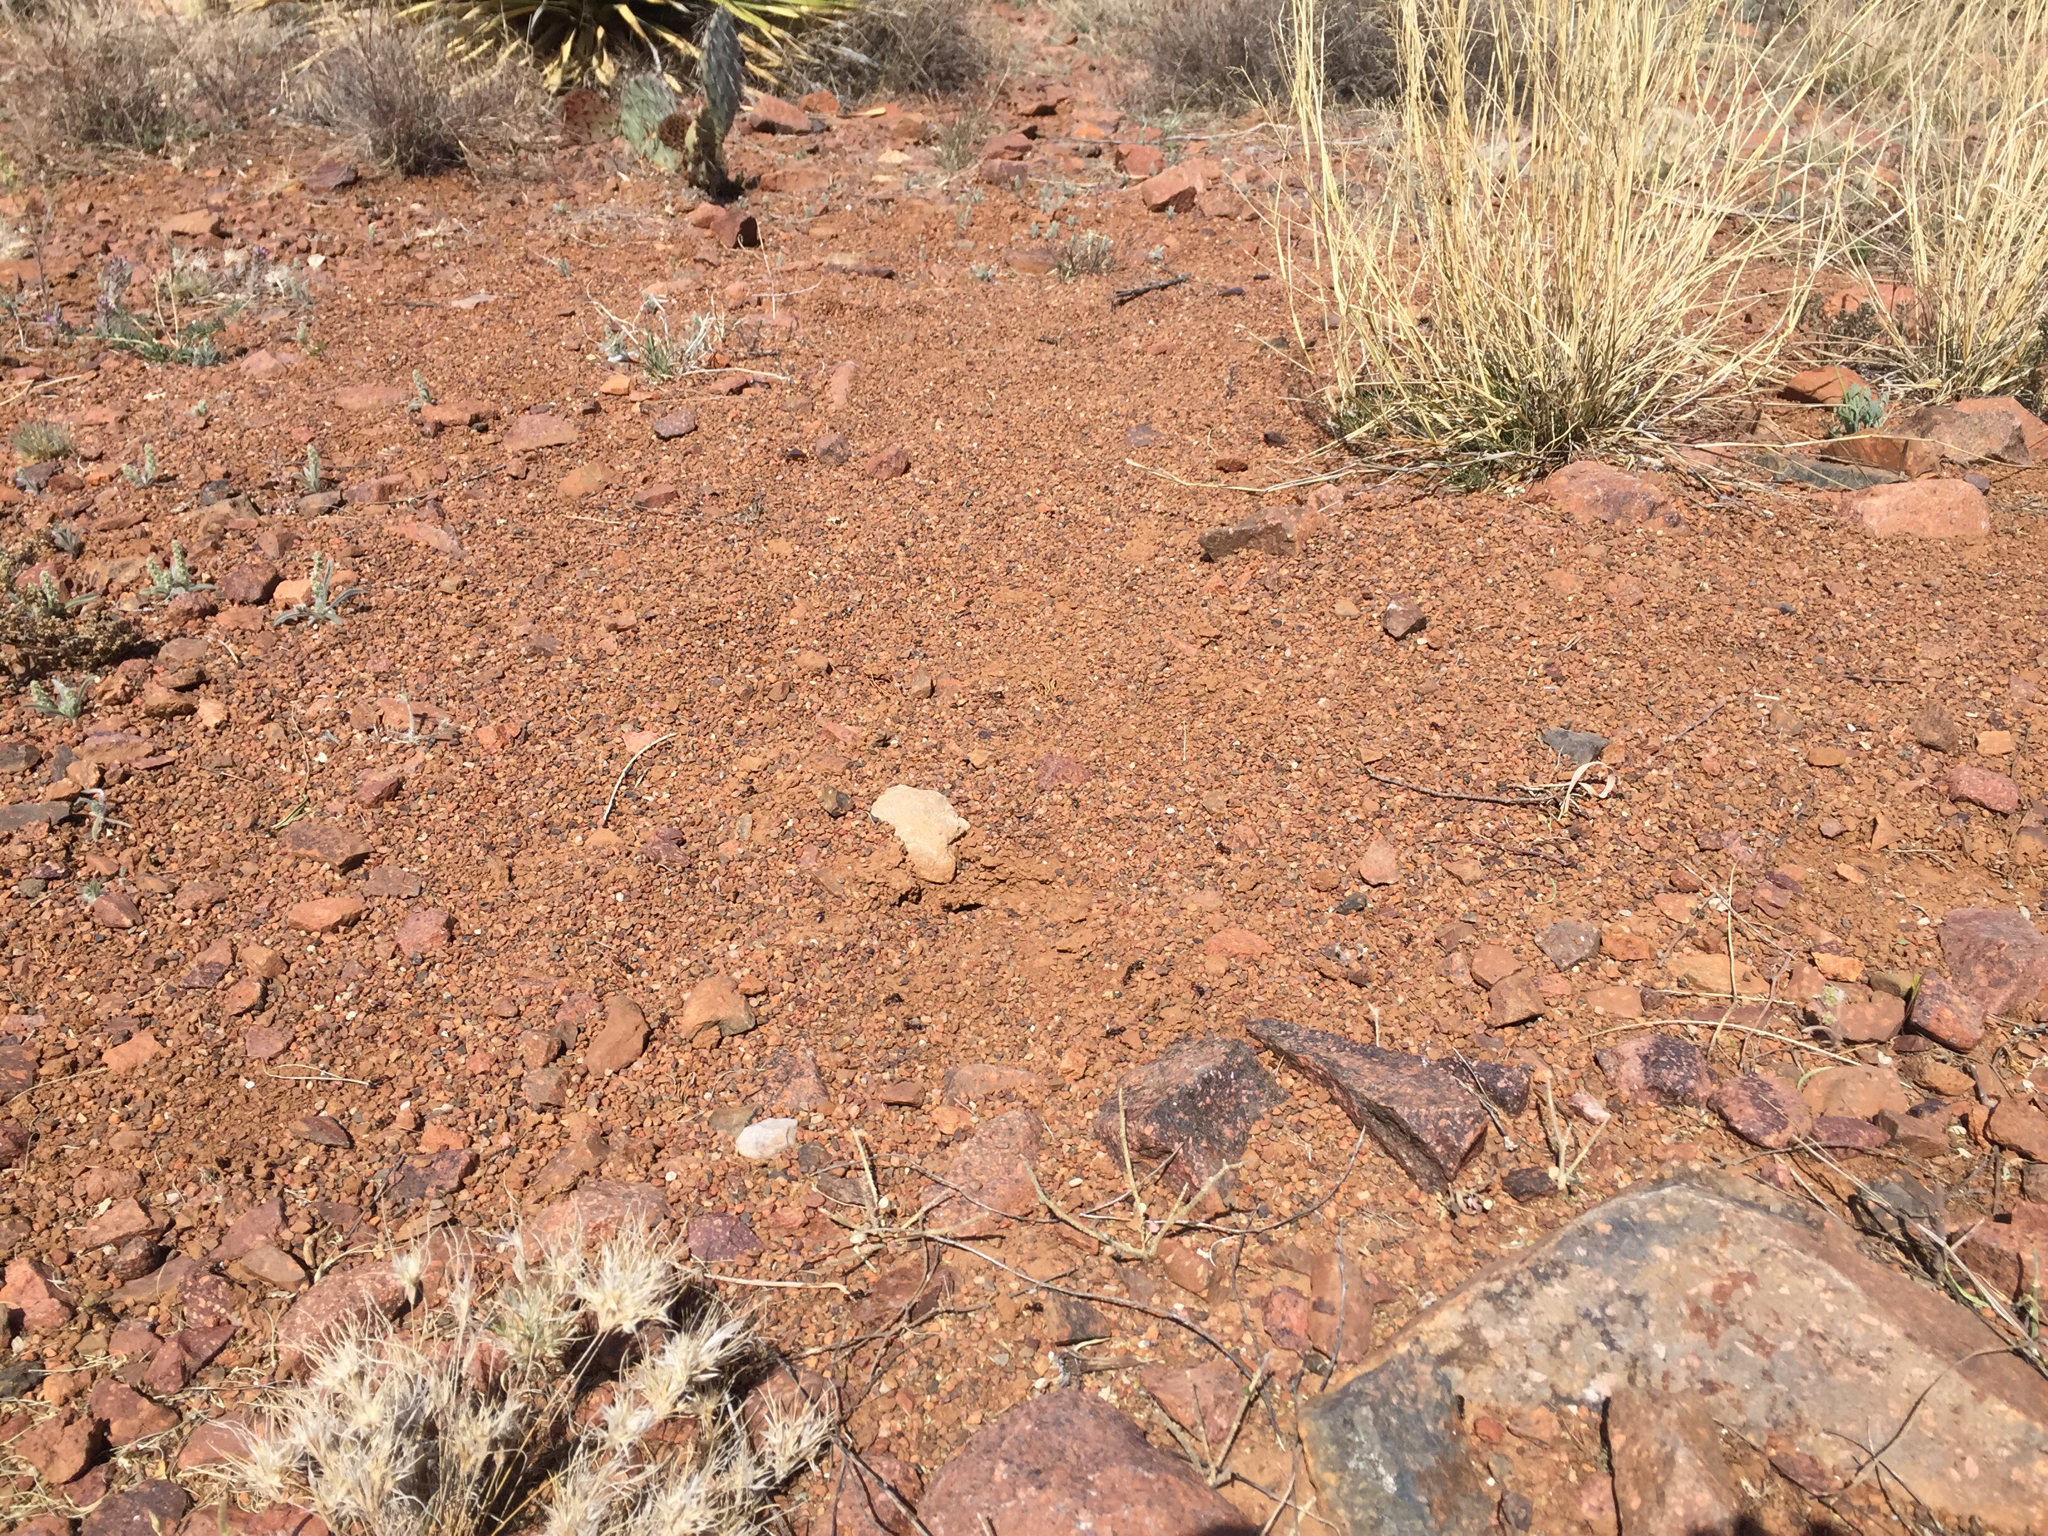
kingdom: Animalia
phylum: Arthropoda
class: Insecta
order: Hymenoptera
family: Formicidae
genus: Pogonomyrmex
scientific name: Pogonomyrmex rugosus
